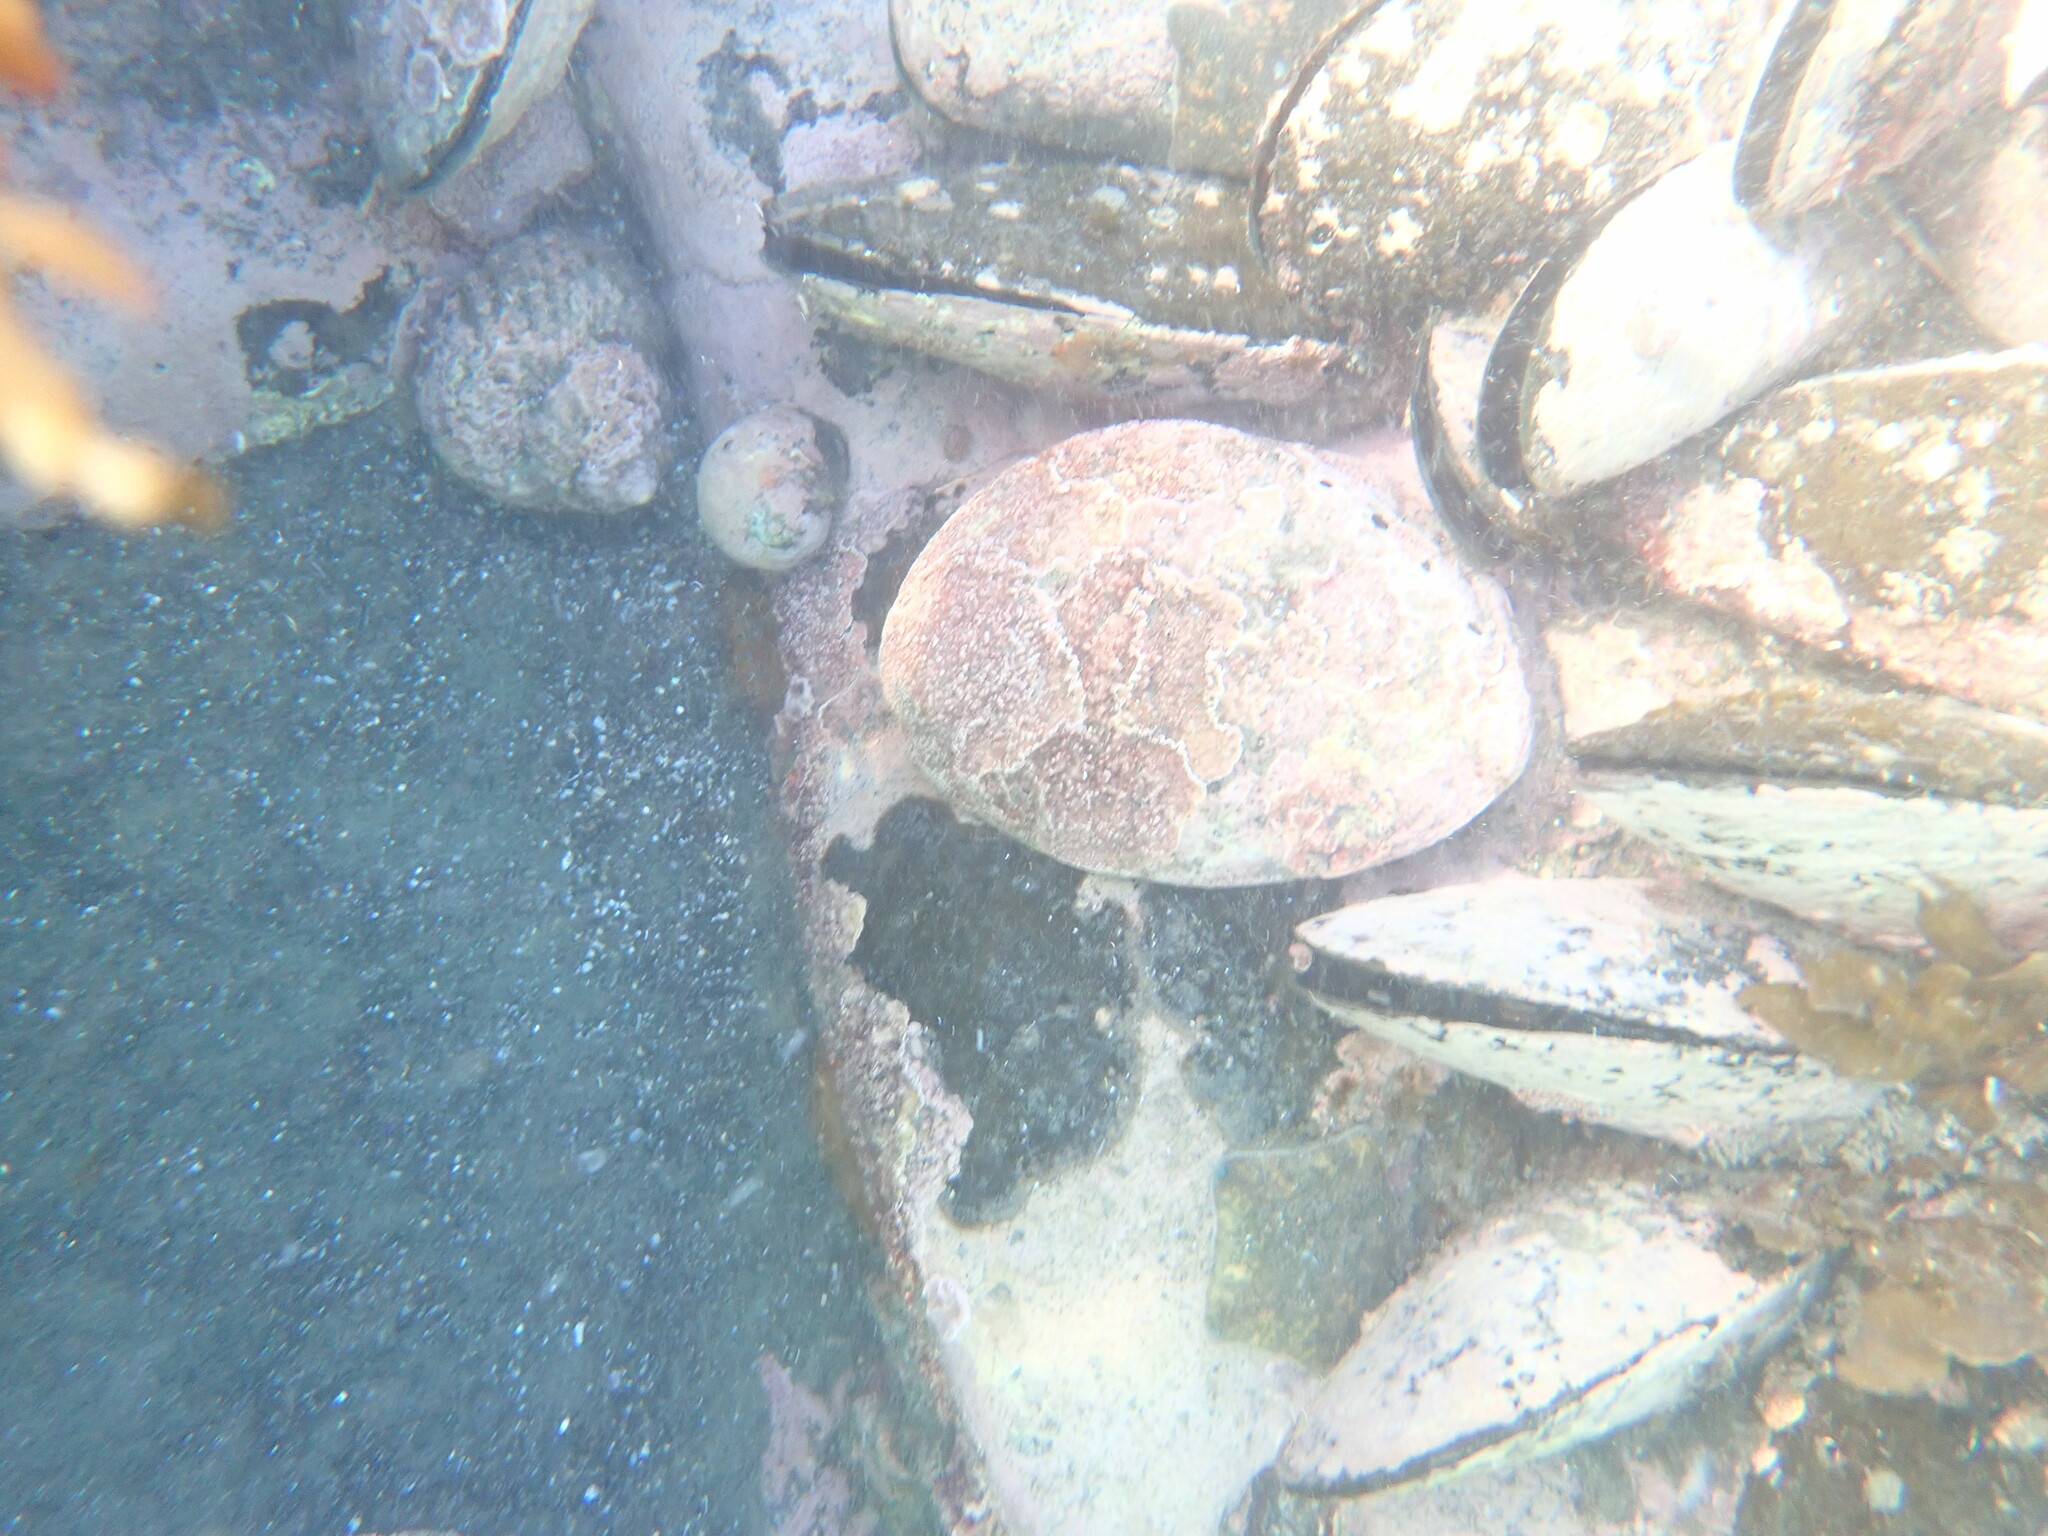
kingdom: Animalia
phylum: Mollusca
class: Gastropoda
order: Lepetellida
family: Haliotidae
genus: Haliotis
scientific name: Haliotis iris
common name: Abalone
